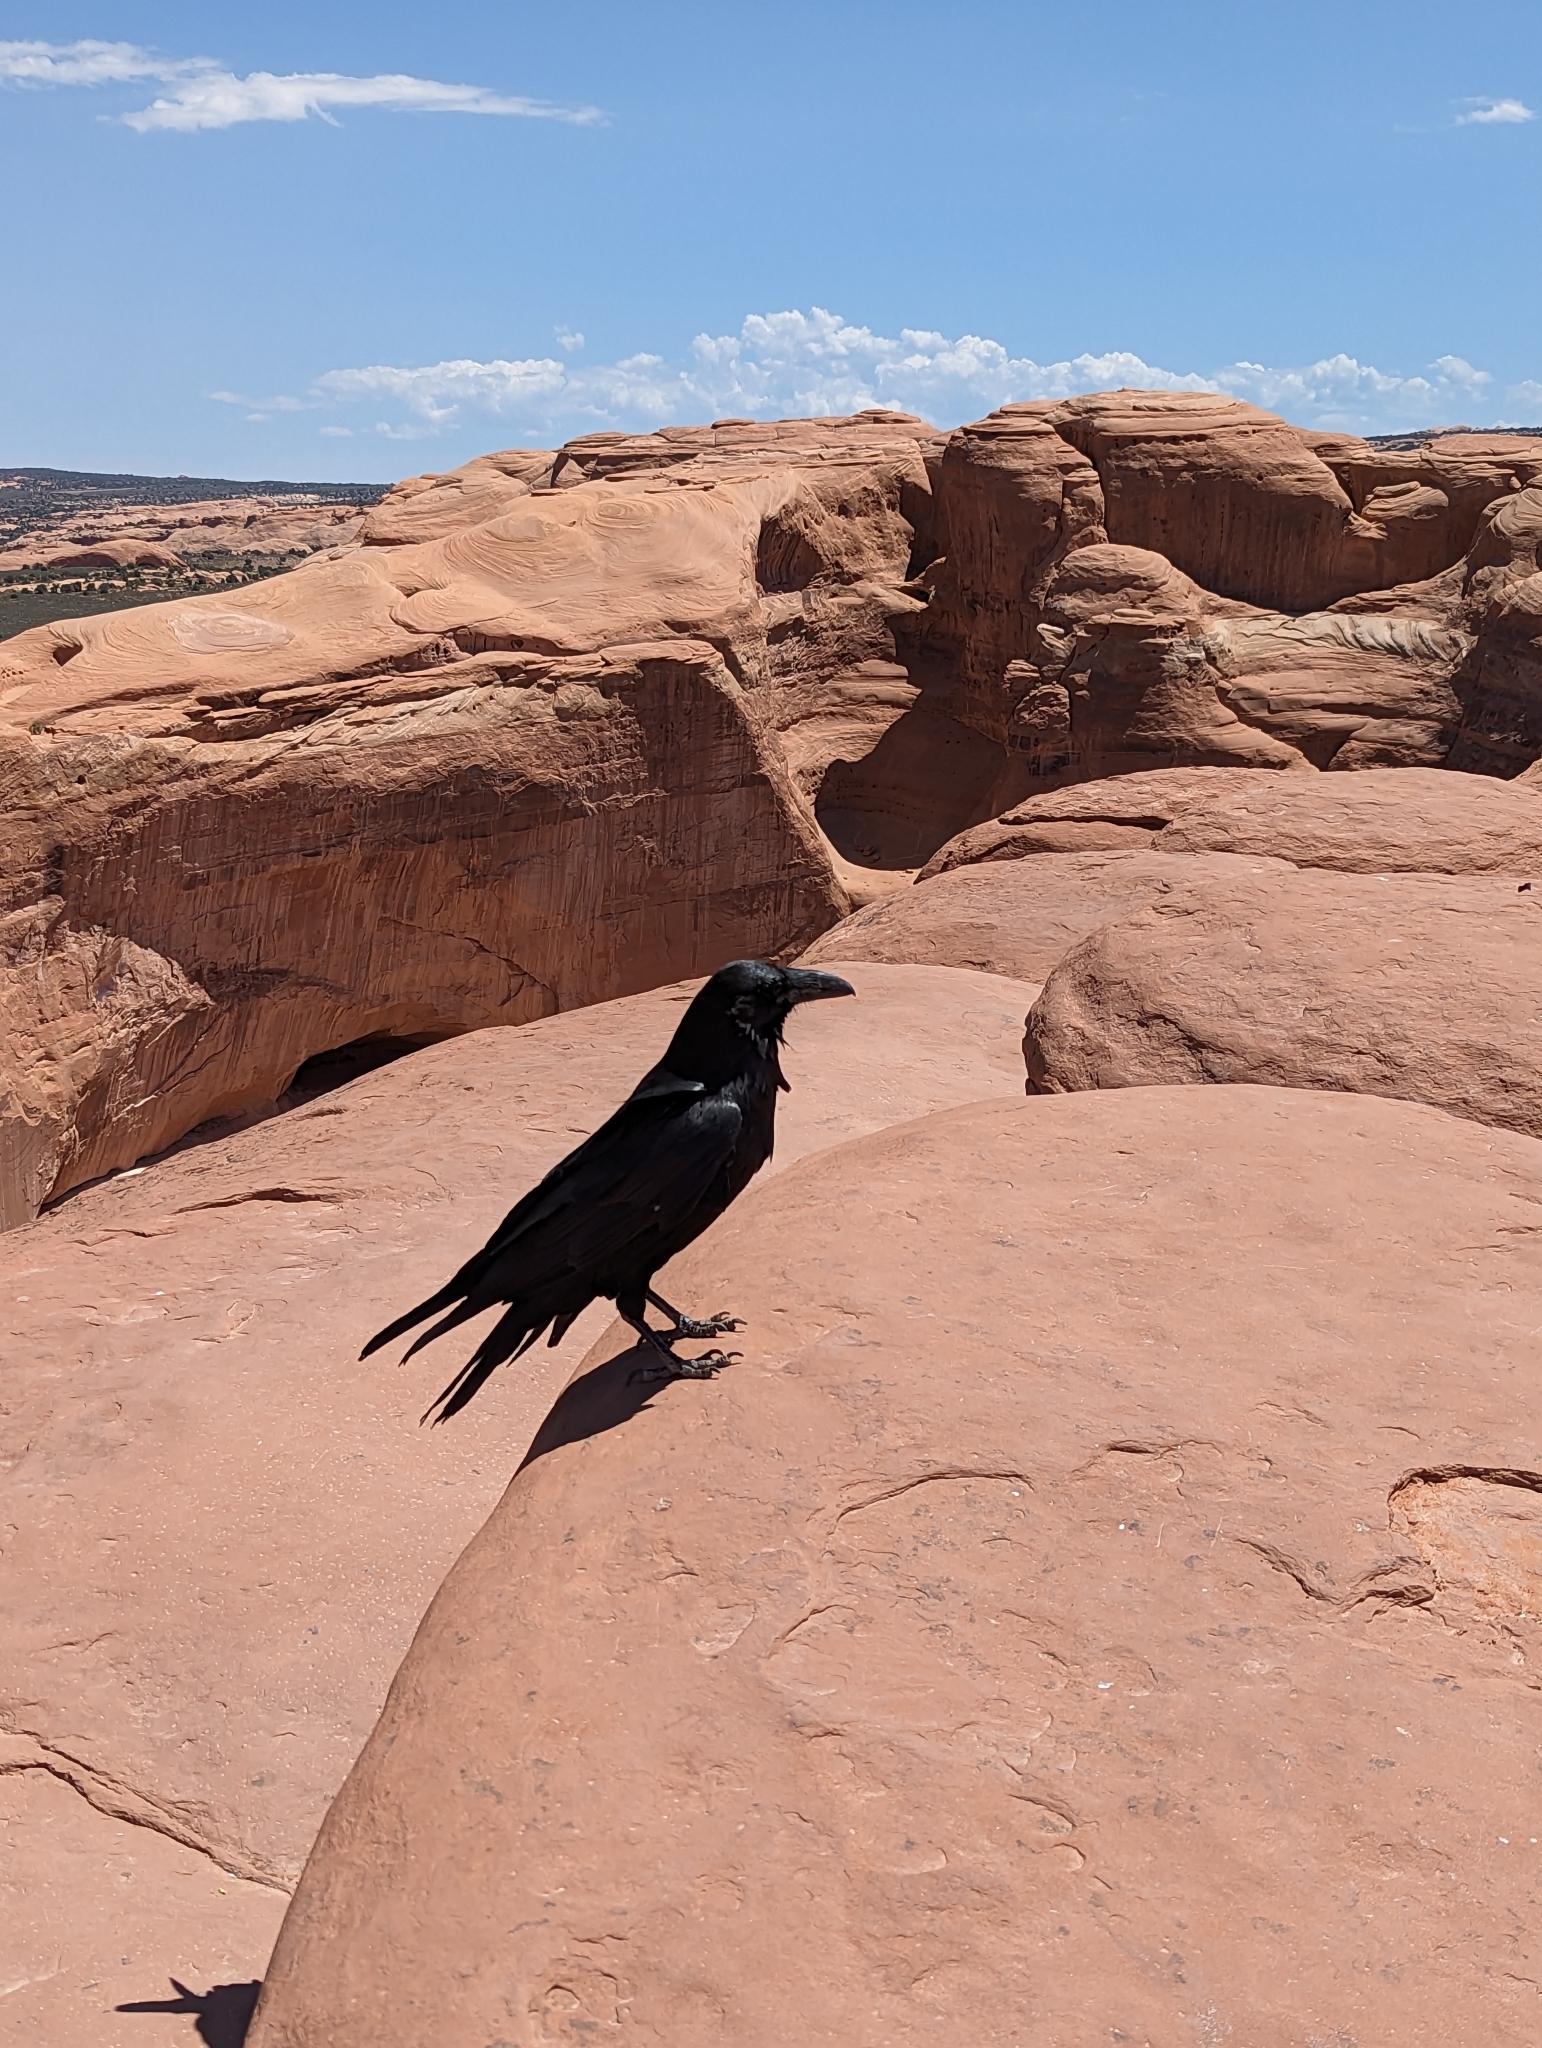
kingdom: Animalia
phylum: Chordata
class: Aves
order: Passeriformes
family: Corvidae
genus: Corvus
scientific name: Corvus corax
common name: Common raven
